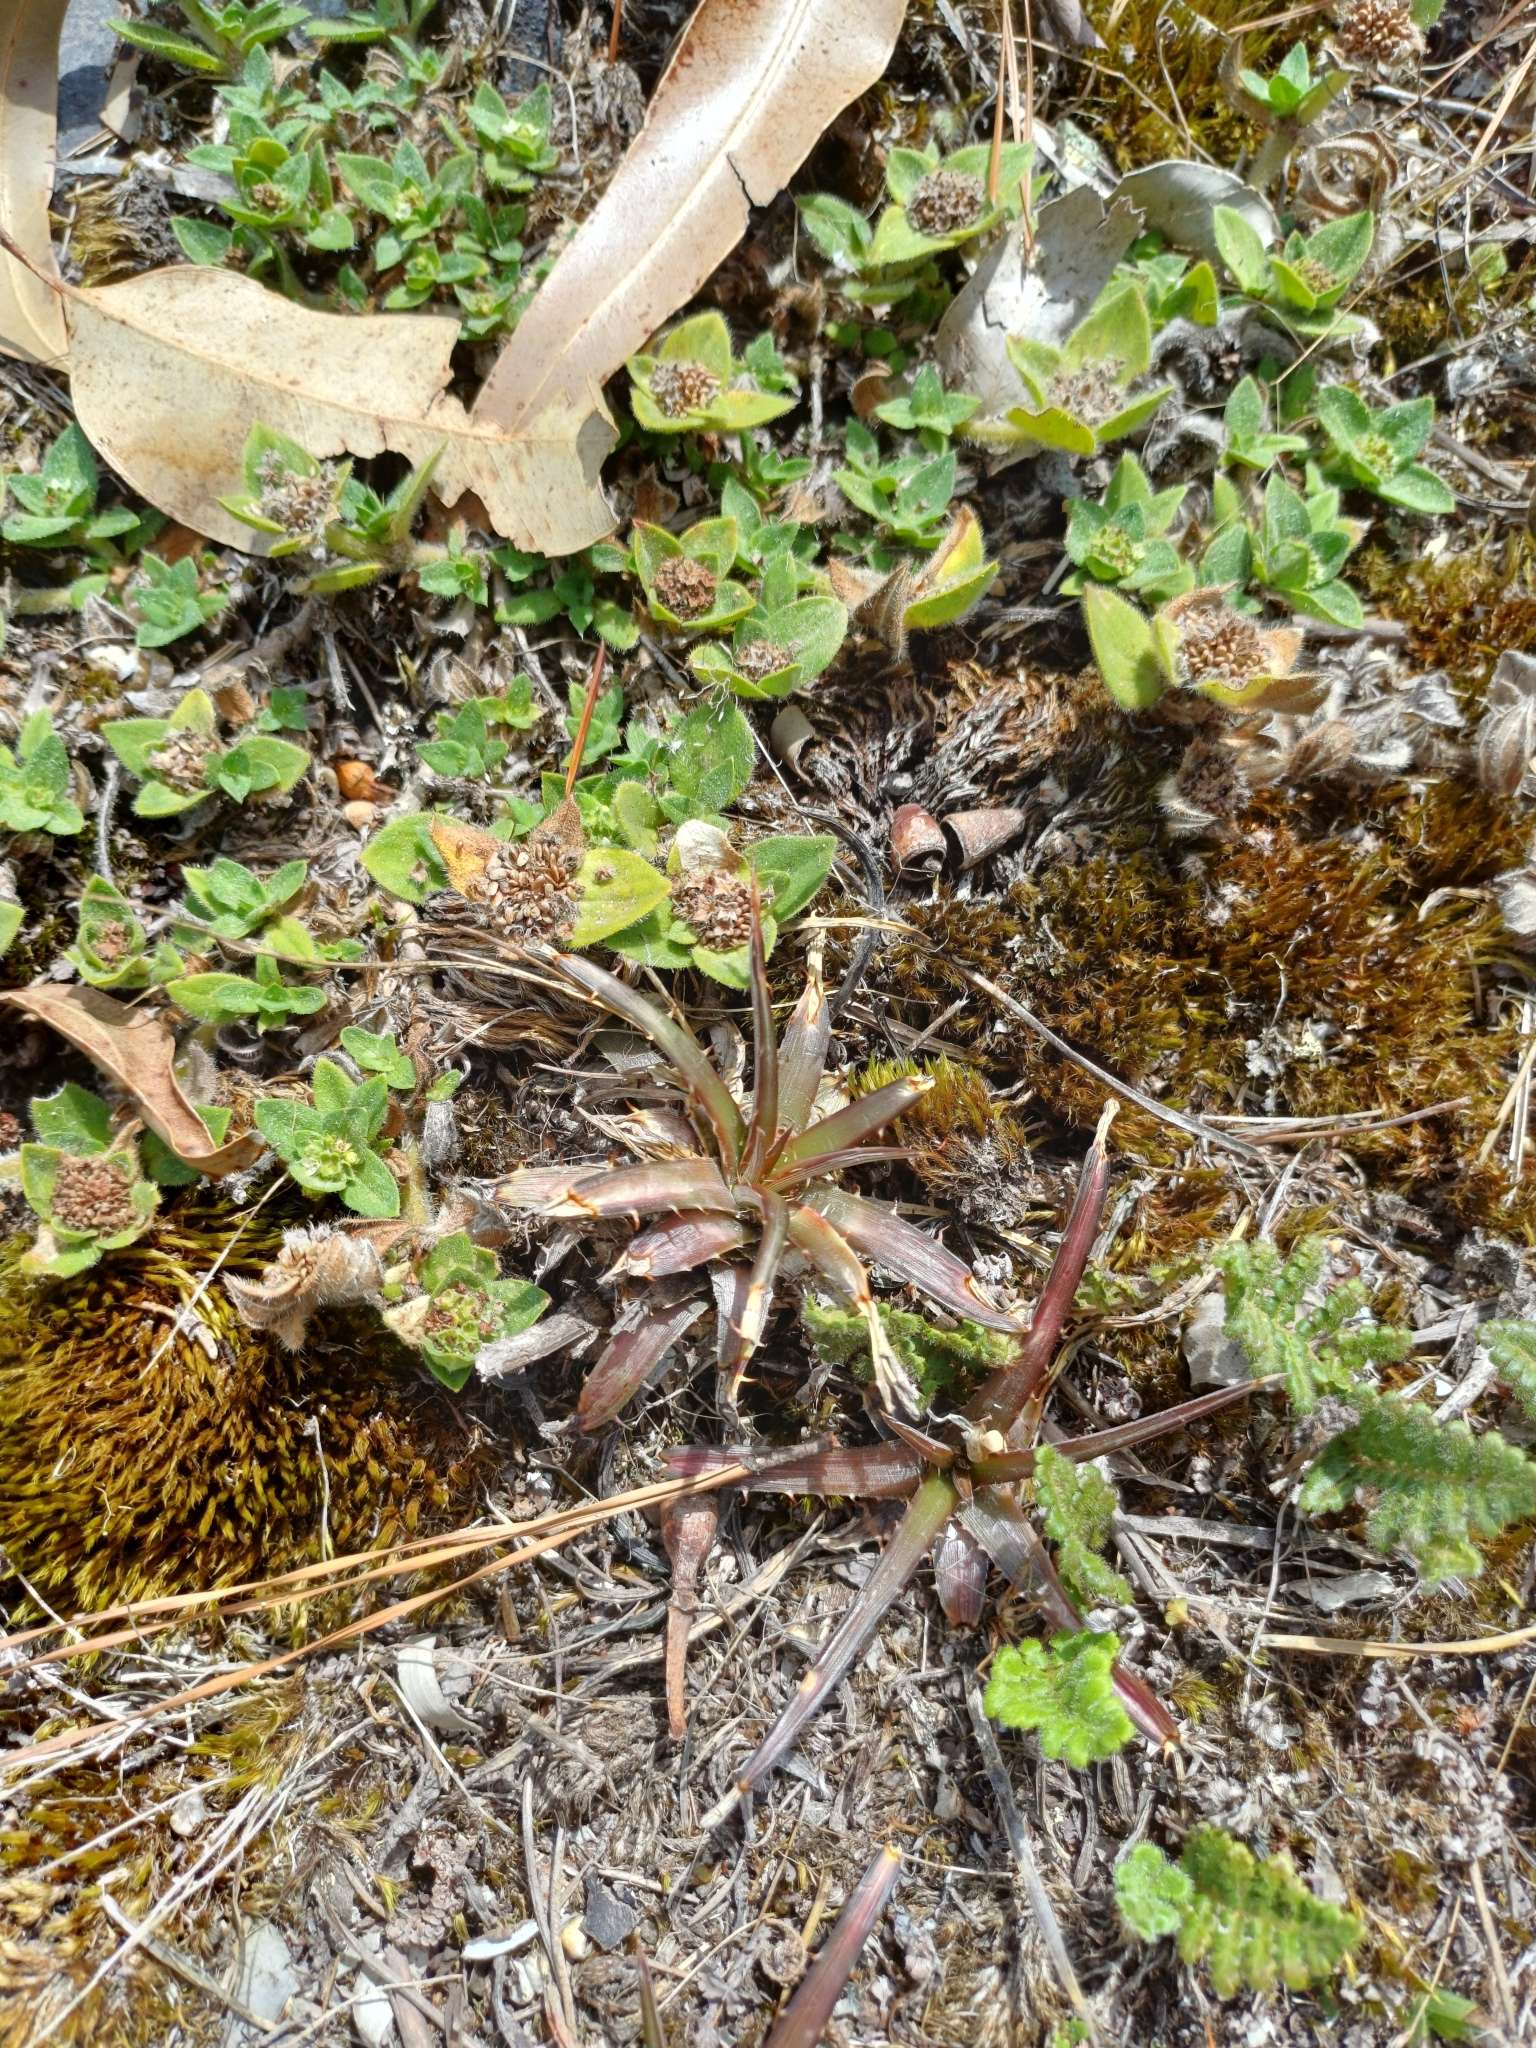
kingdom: Plantae
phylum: Tracheophyta
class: Liliopsida
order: Poales
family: Bromeliaceae
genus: Dyckia
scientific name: Dyckia remotiflora
